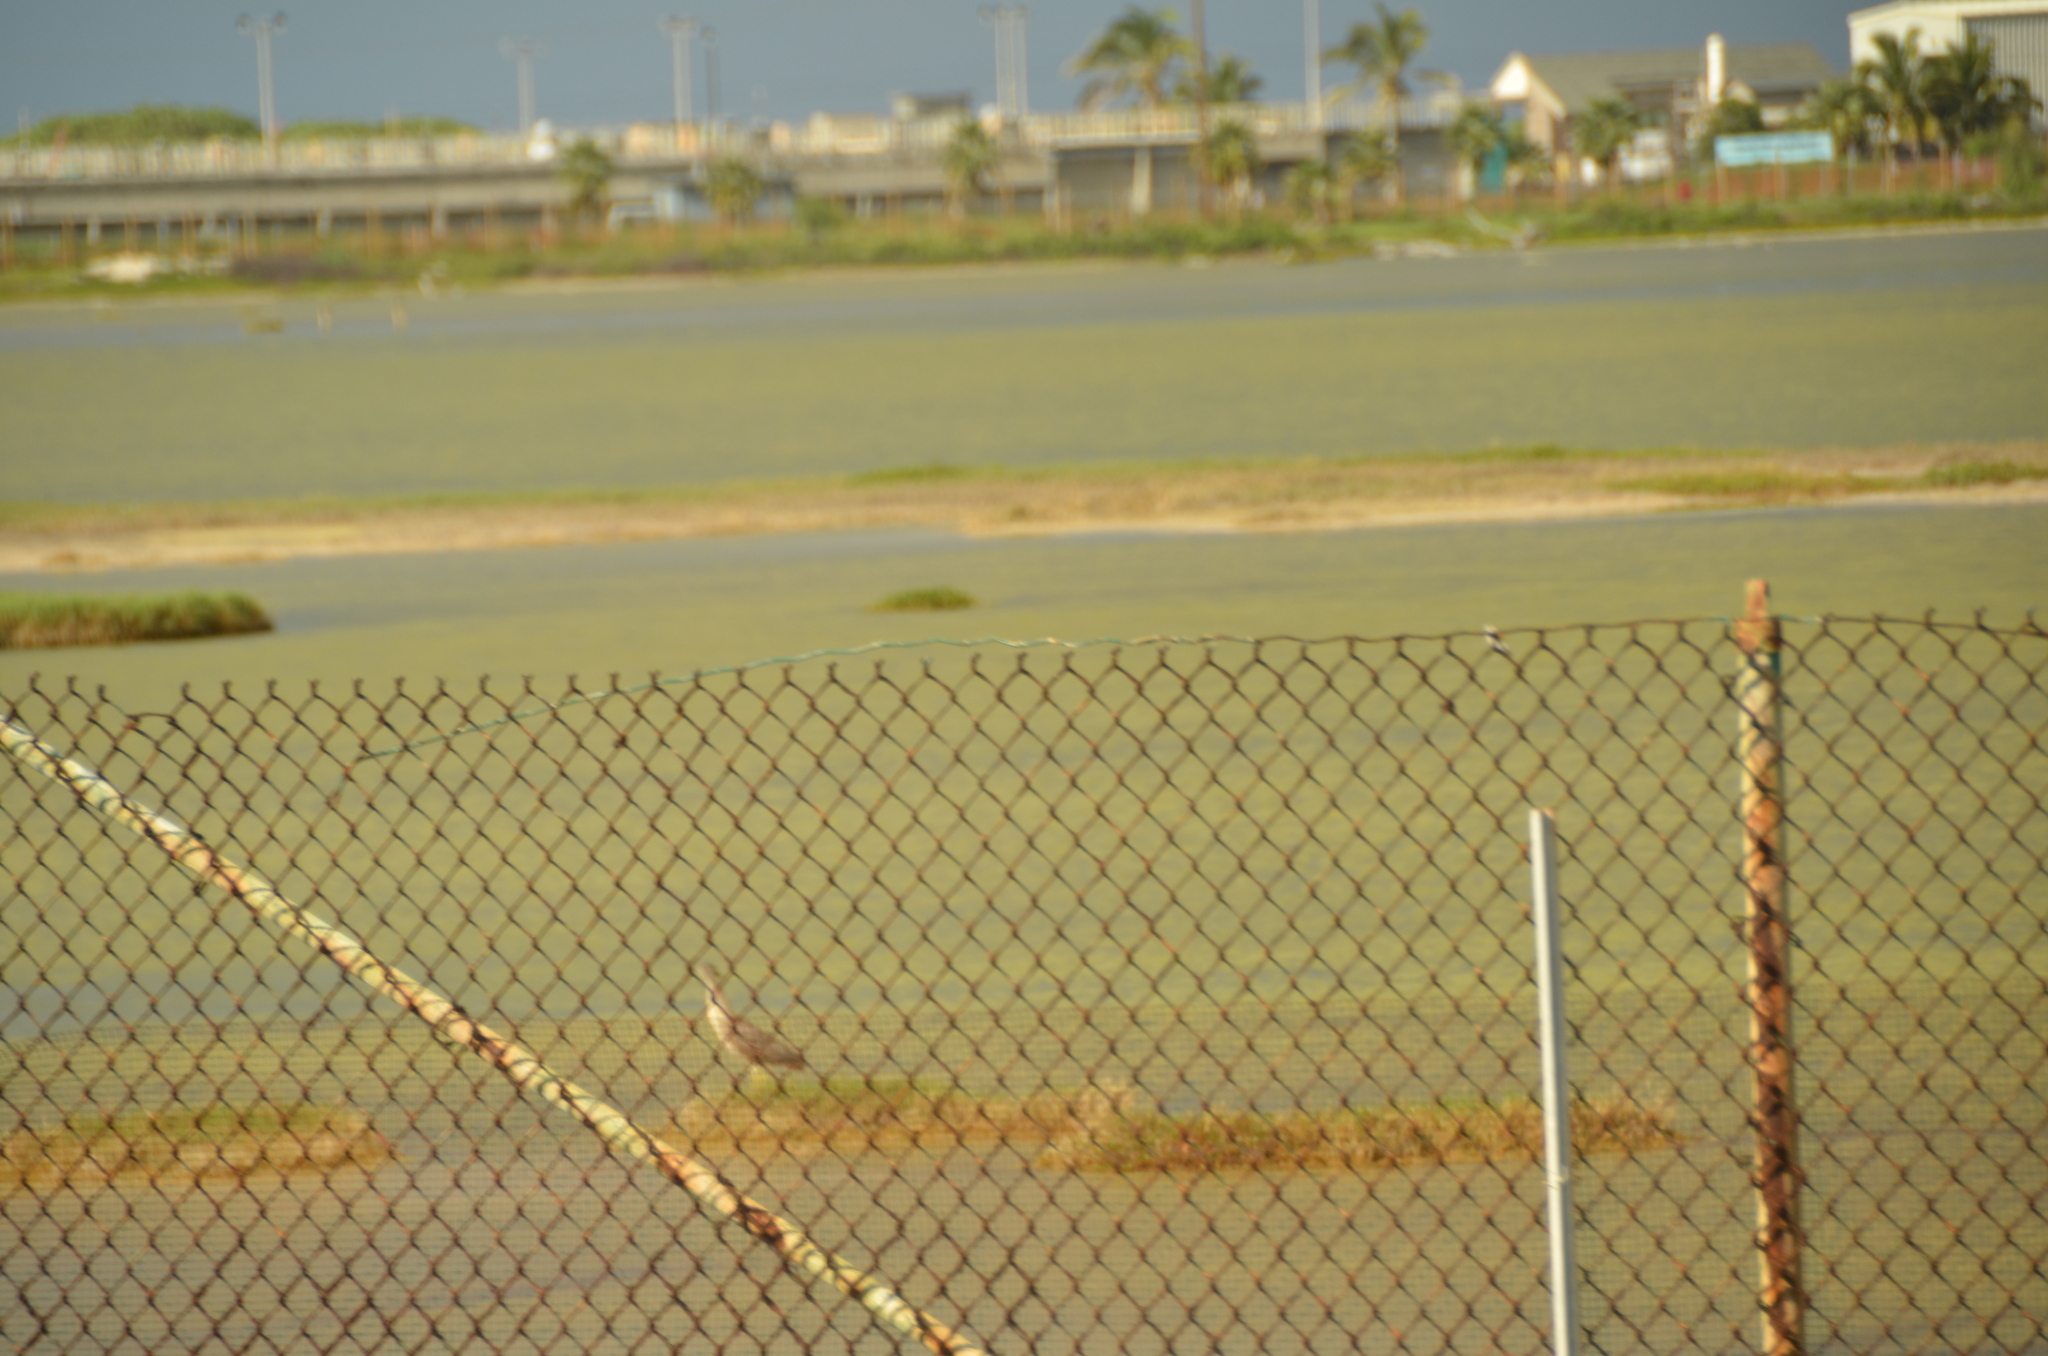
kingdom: Animalia
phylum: Chordata
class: Aves
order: Pelecaniformes
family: Ardeidae
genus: Nycticorax
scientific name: Nycticorax nycticorax
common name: Black-crowned night heron
